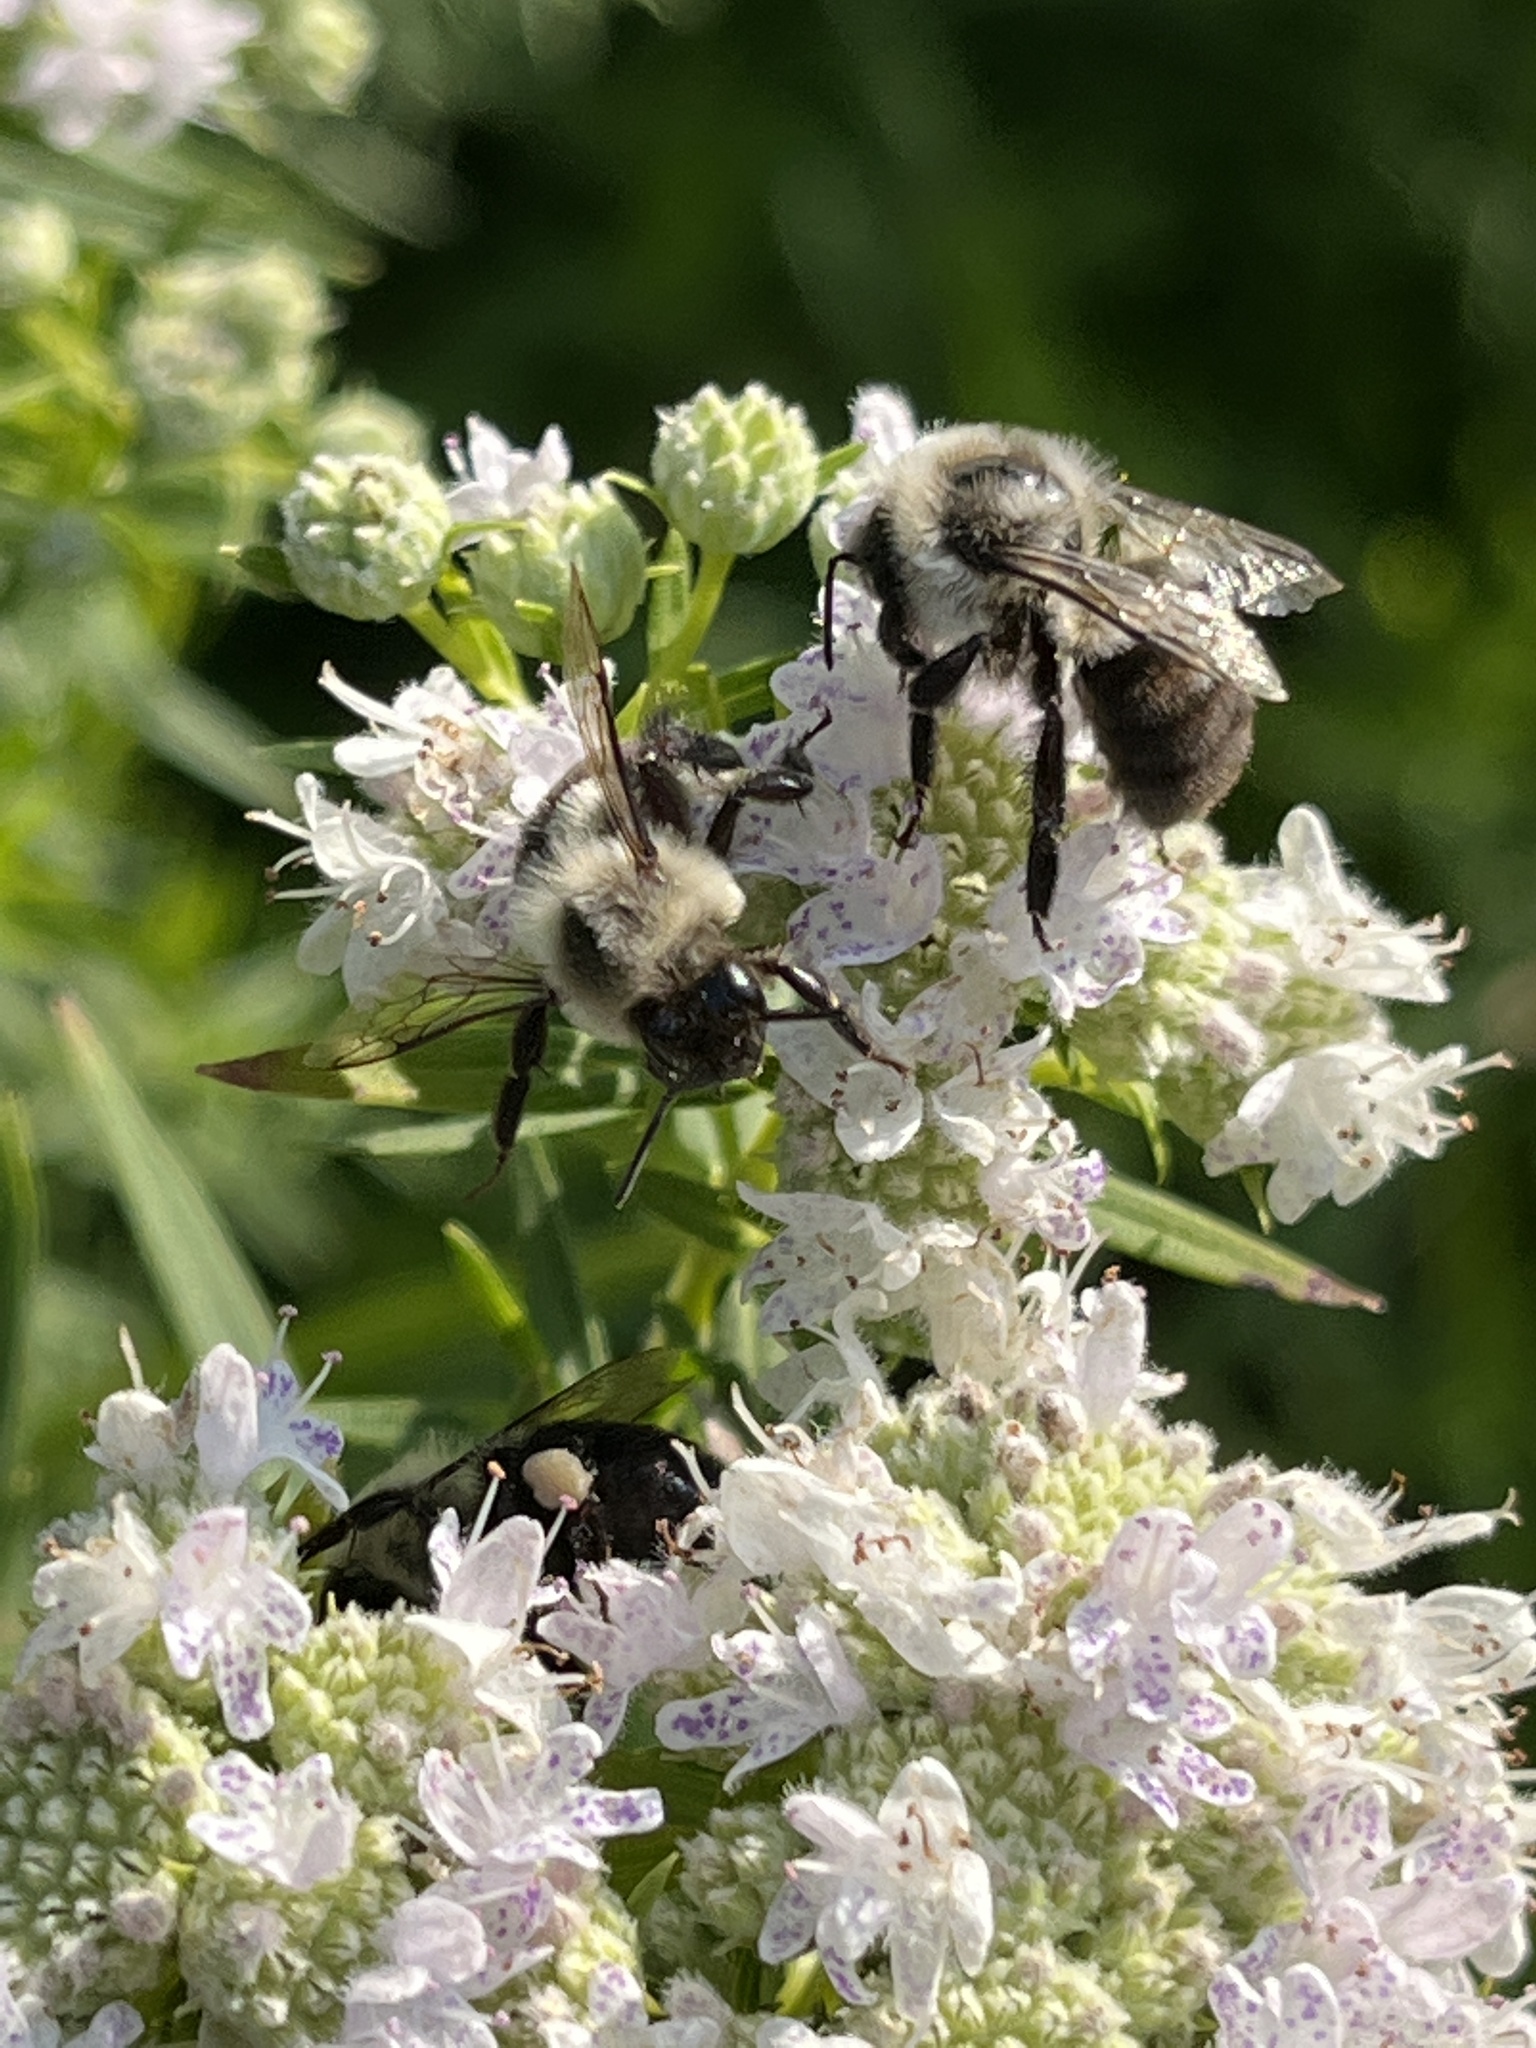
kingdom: Animalia
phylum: Arthropoda
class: Insecta
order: Hymenoptera
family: Apidae
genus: Bombus
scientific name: Bombus impatiens
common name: Common eastern bumble bee
